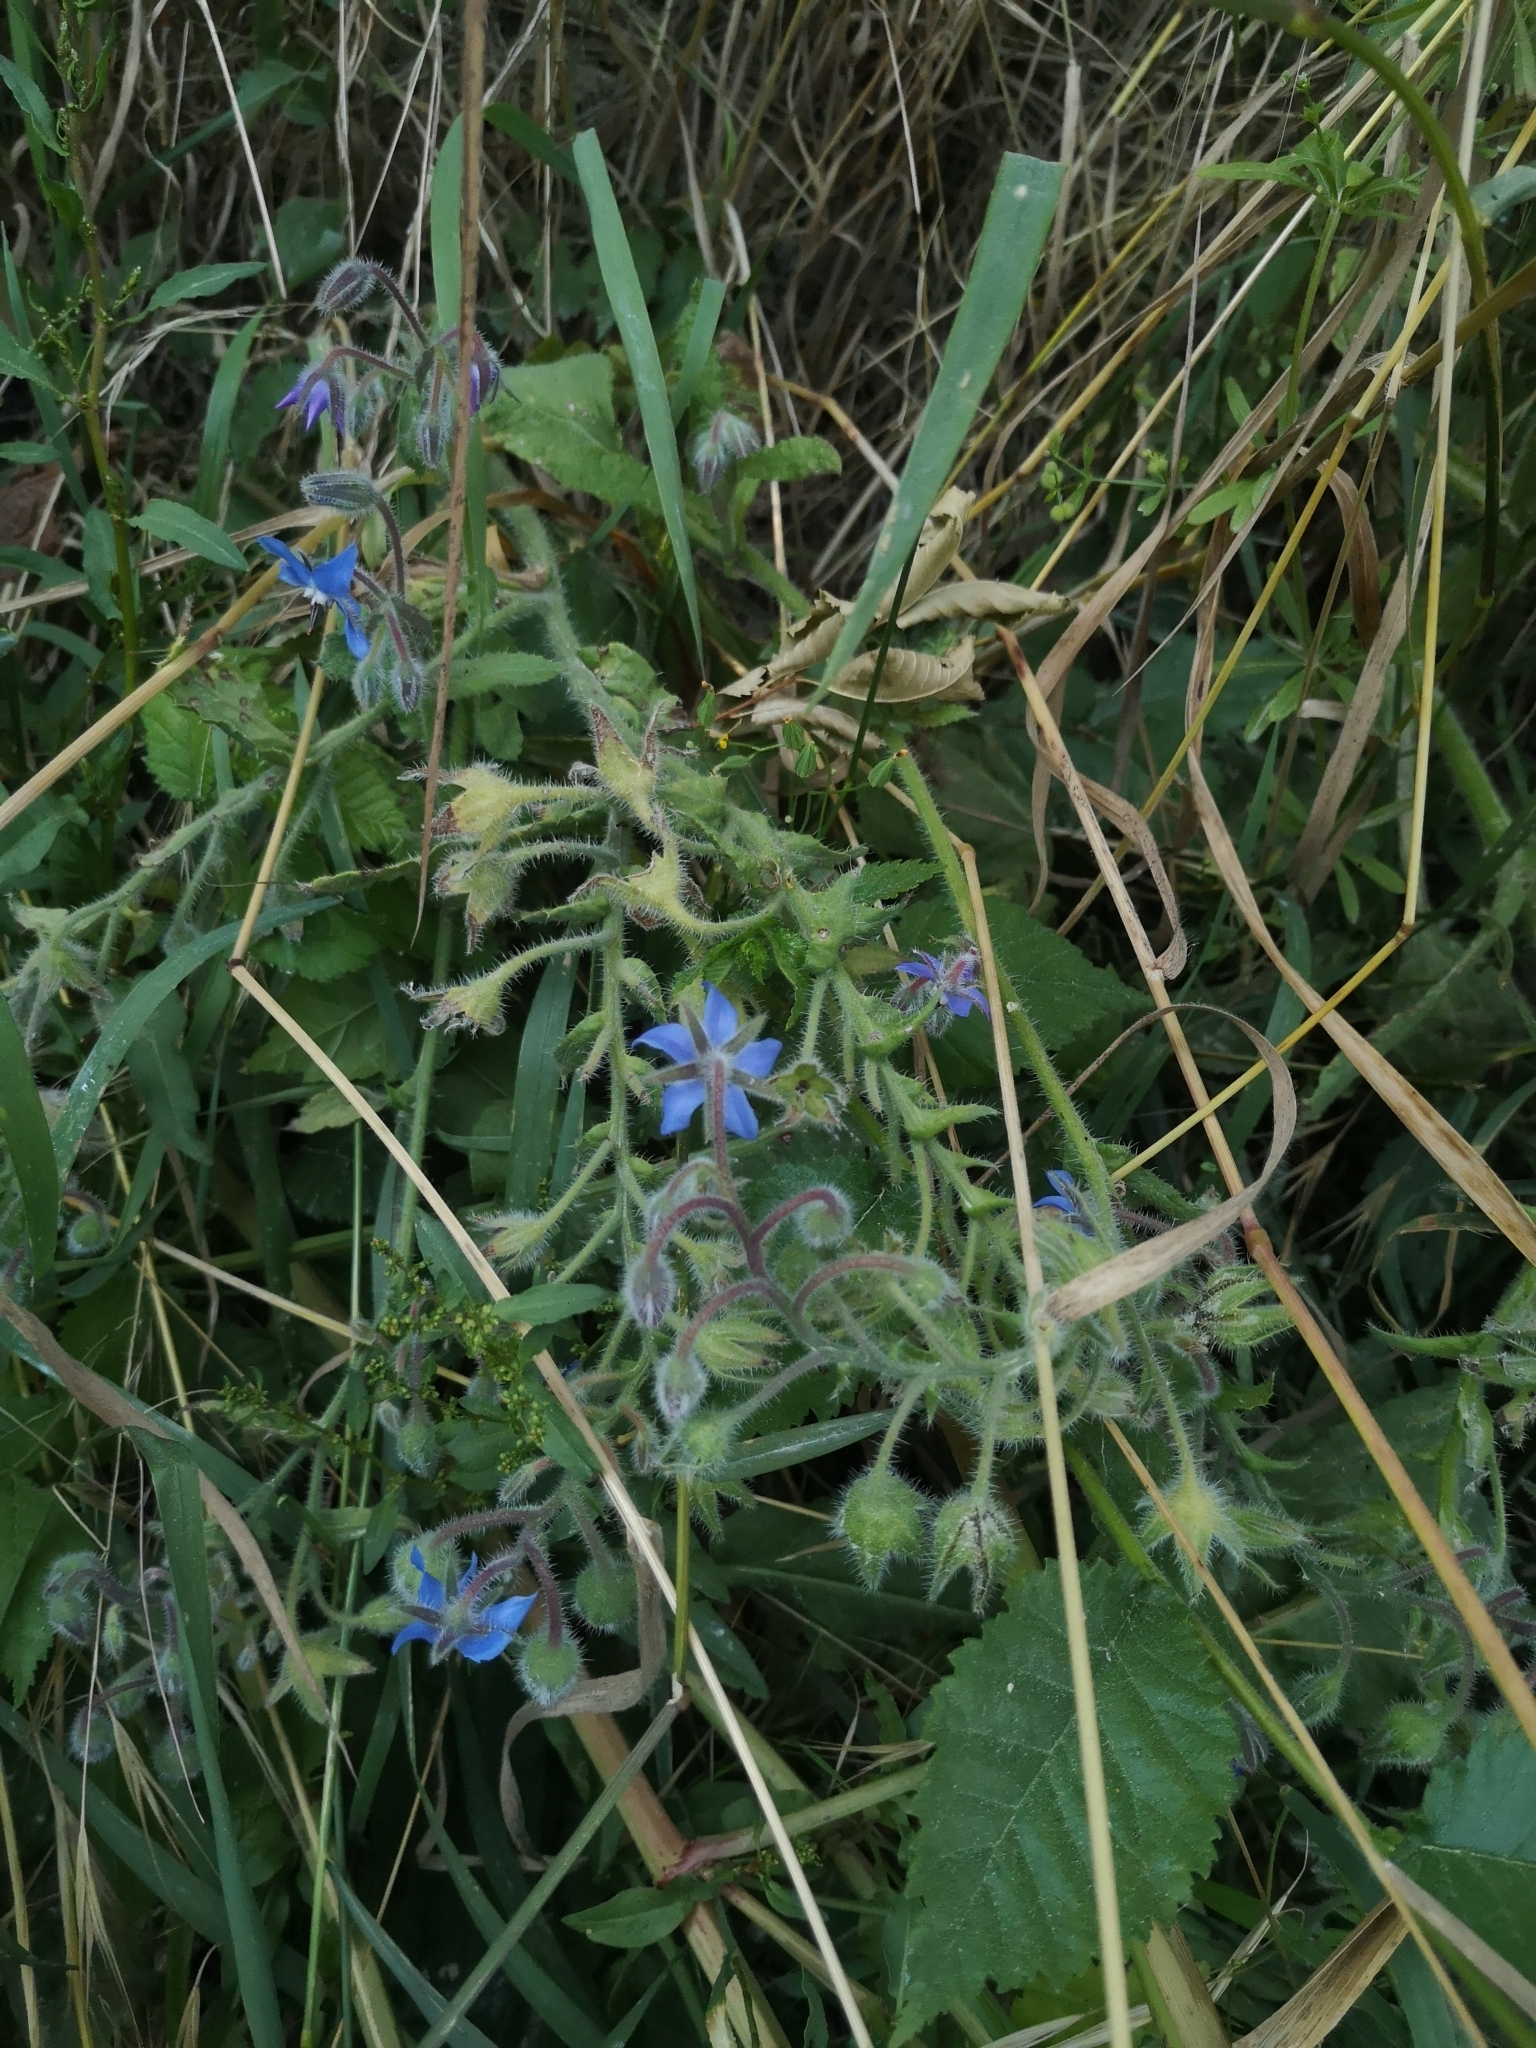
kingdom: Plantae
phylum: Tracheophyta
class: Magnoliopsida
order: Boraginales
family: Boraginaceae
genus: Borago
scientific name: Borago officinalis
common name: Borage
